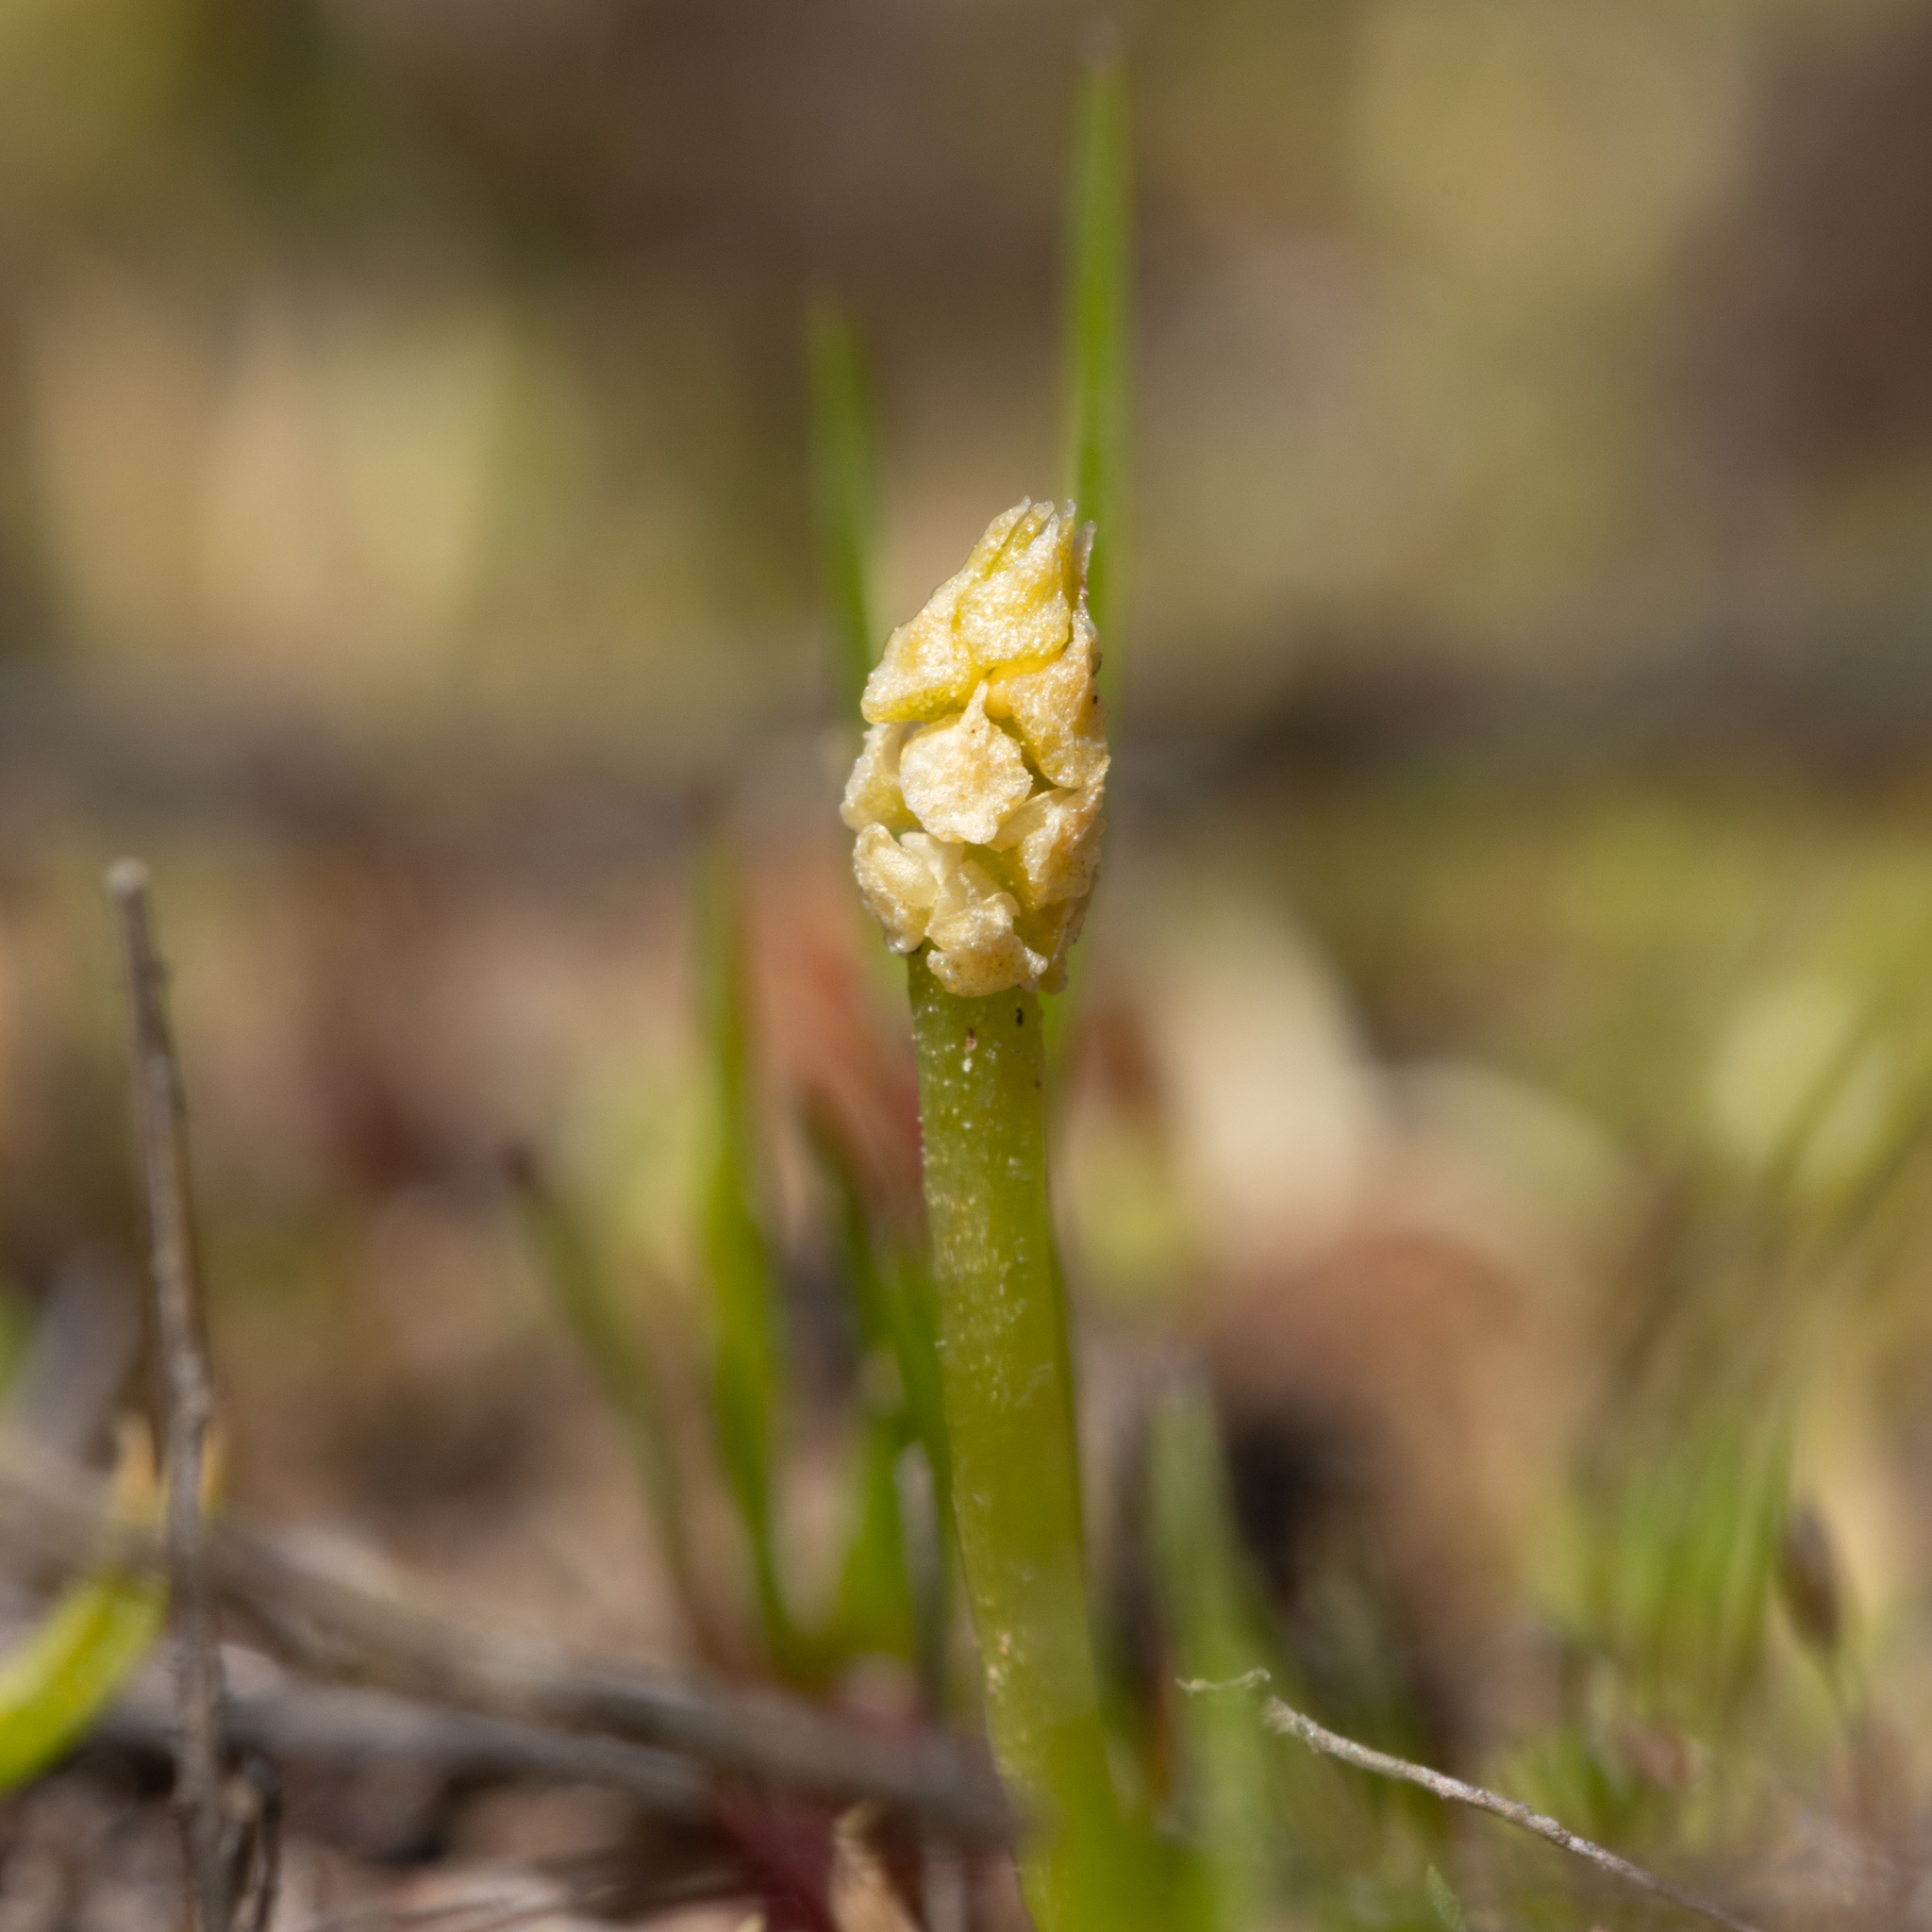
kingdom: Plantae
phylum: Tracheophyta
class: Lycopodiopsida
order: Lycopodiales
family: Lycopodiaceae
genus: Phylloglossum
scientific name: Phylloglossum drummondii
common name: Pigmy-club-moss
